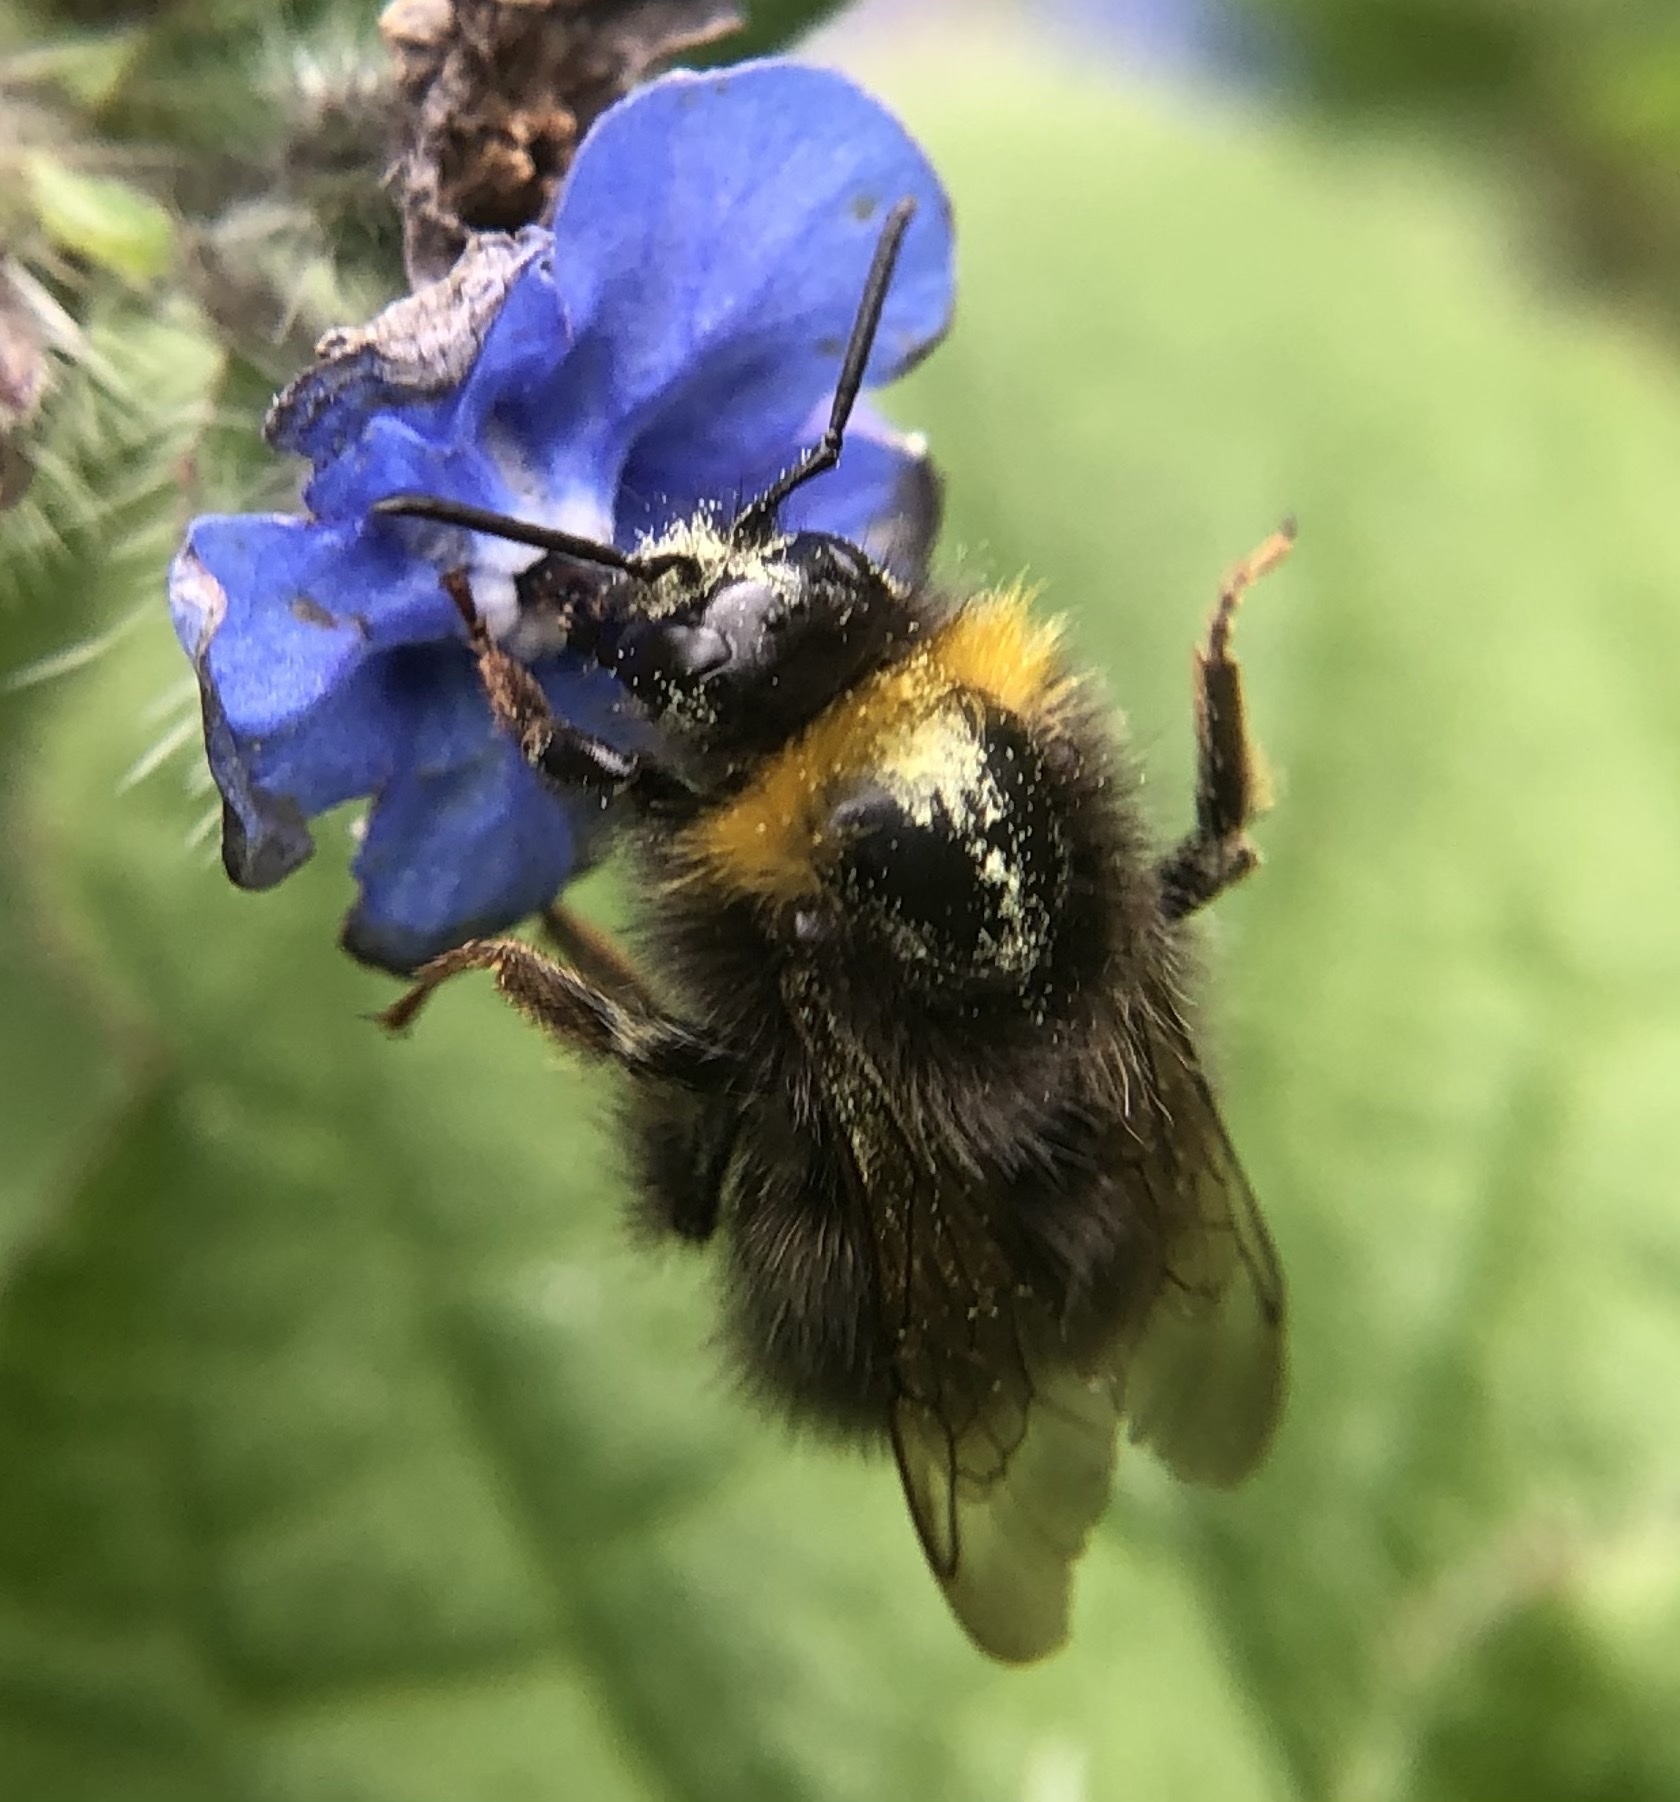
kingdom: Animalia
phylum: Arthropoda
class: Insecta
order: Hymenoptera
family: Apidae
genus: Bombus
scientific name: Bombus pratorum
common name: Early humble-bee
